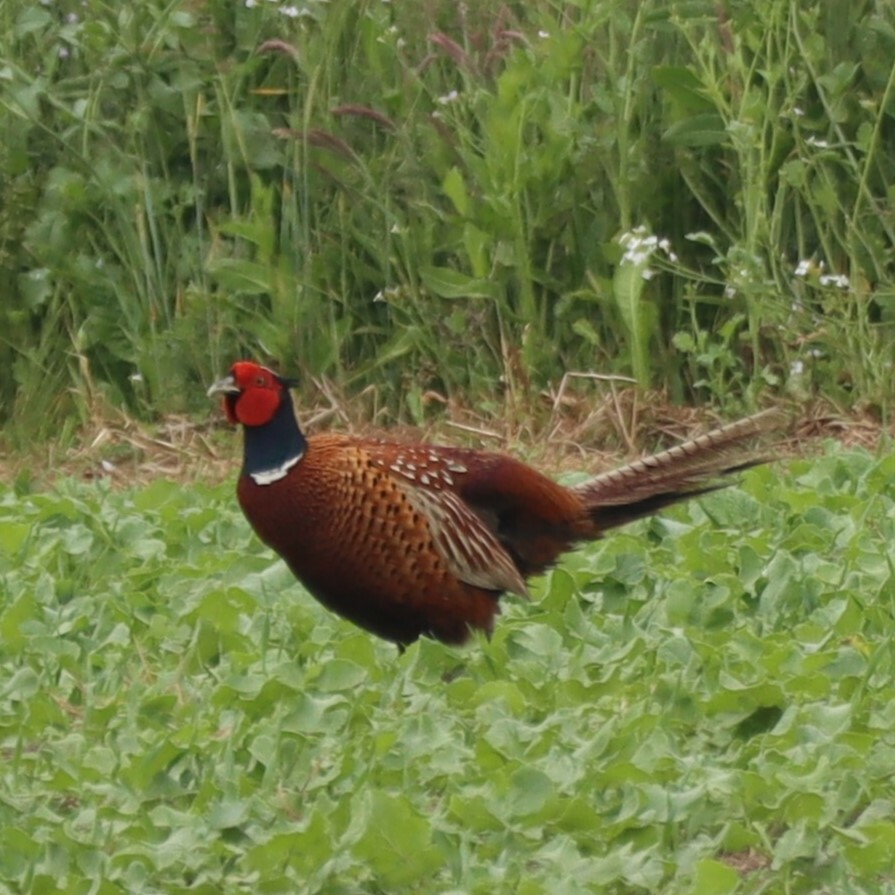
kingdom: Animalia
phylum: Chordata
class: Aves
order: Galliformes
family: Phasianidae
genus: Phasianus
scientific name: Phasianus colchicus
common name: Common pheasant
